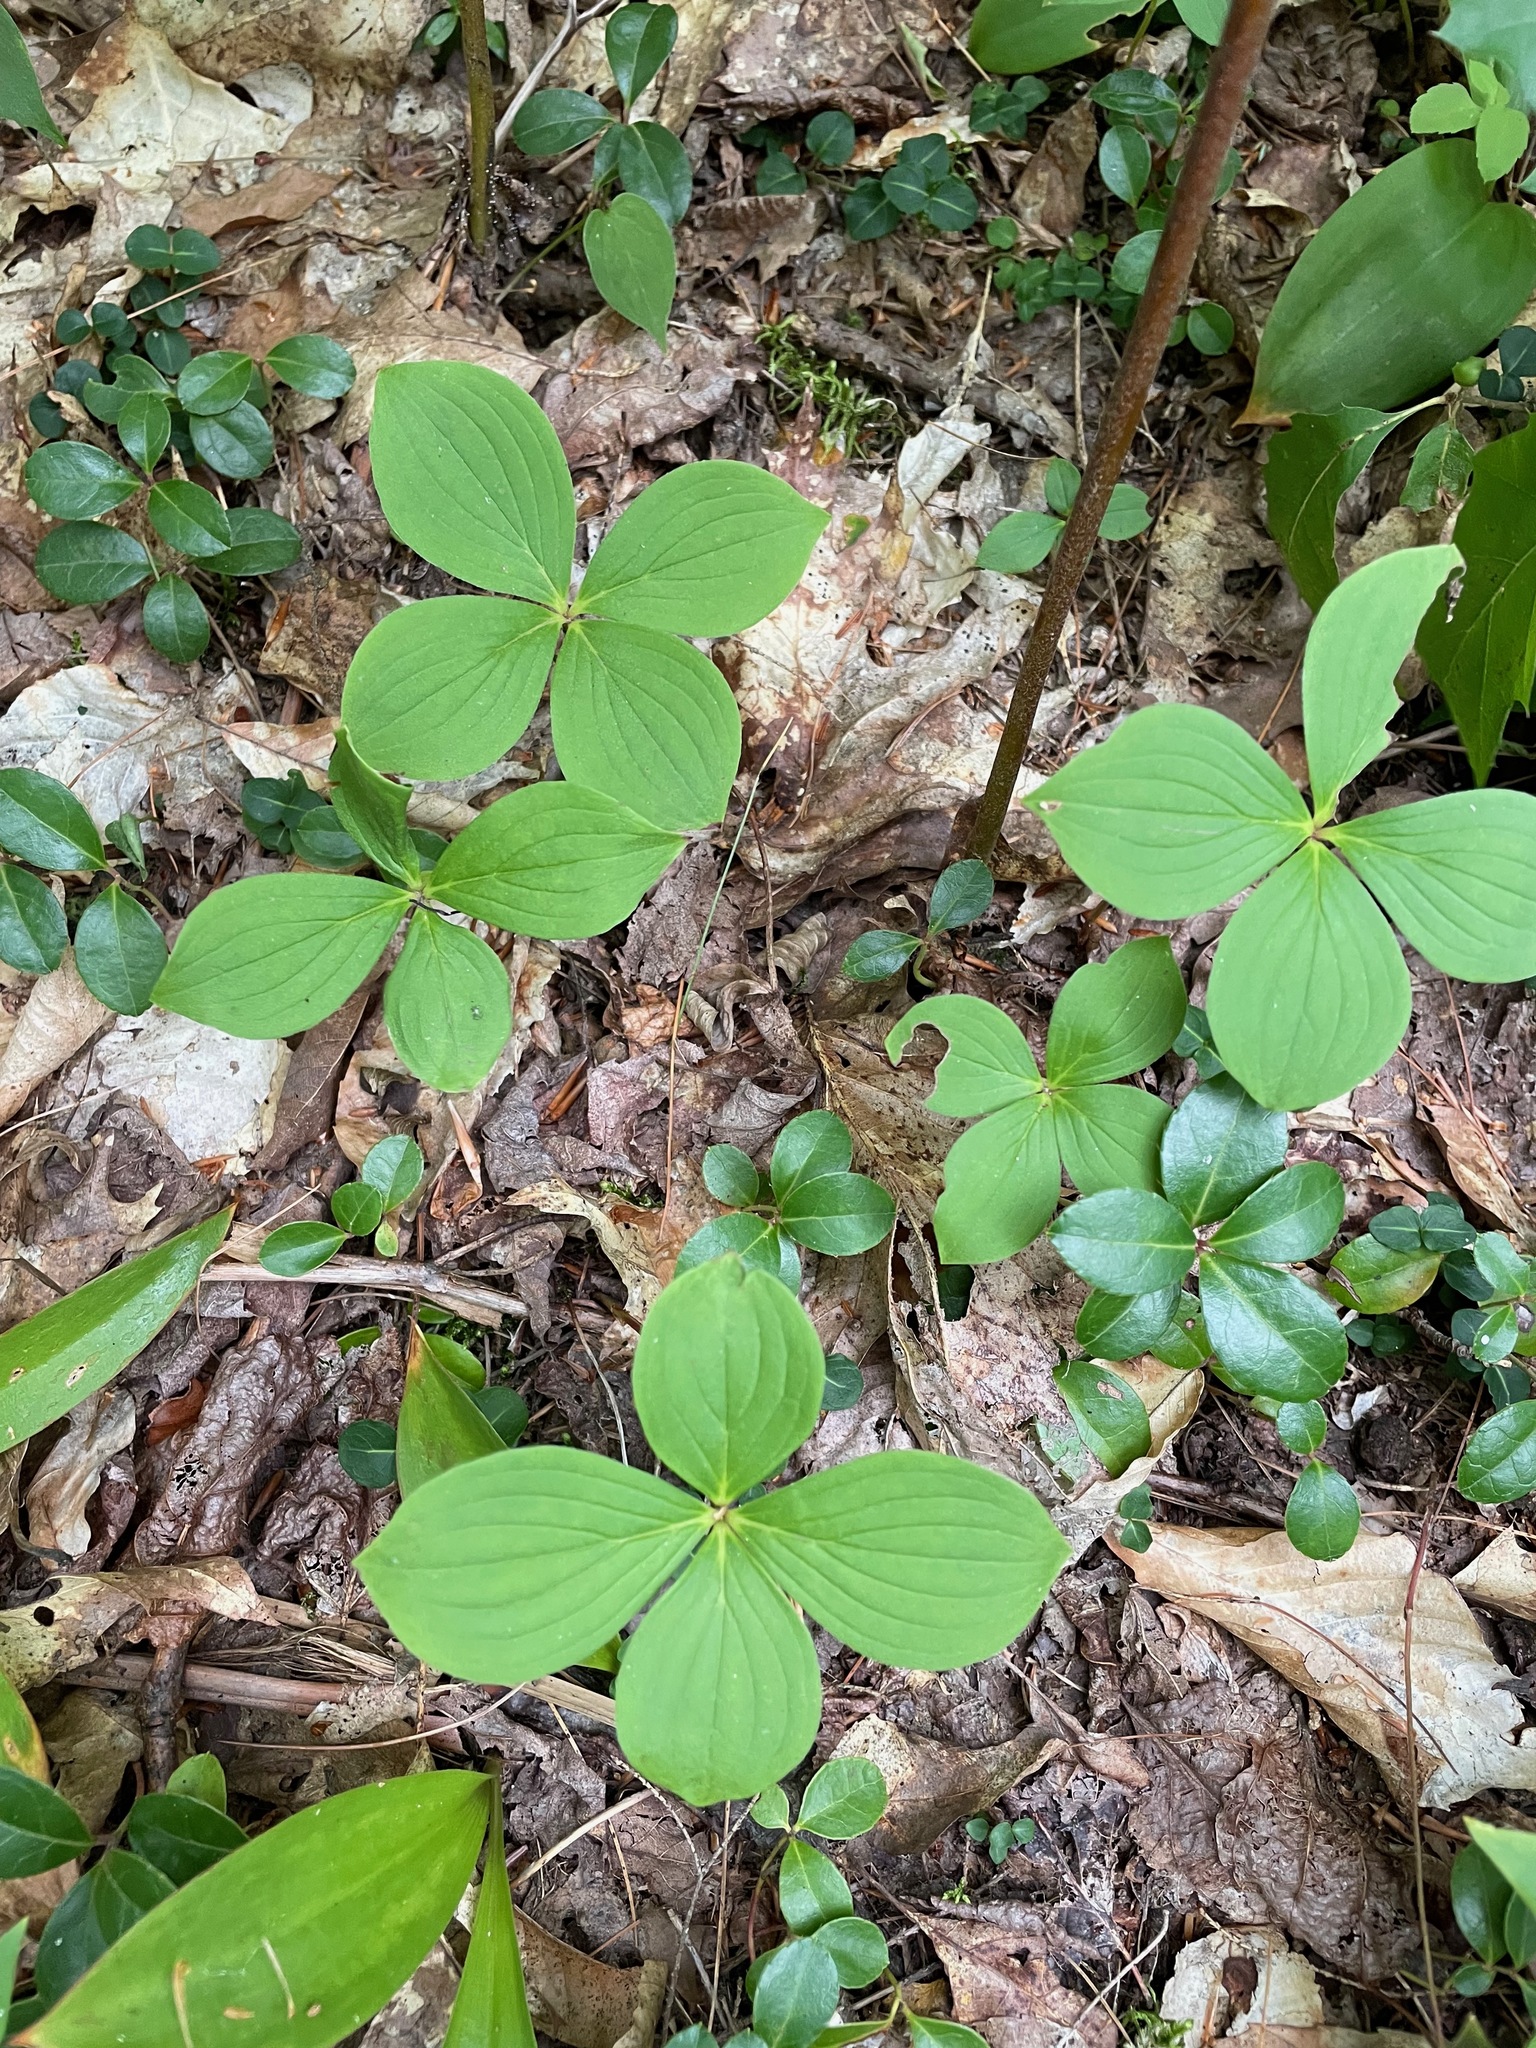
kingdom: Plantae
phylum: Tracheophyta
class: Magnoliopsida
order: Cornales
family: Cornaceae
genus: Cornus
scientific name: Cornus canadensis
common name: Creeping dogwood
